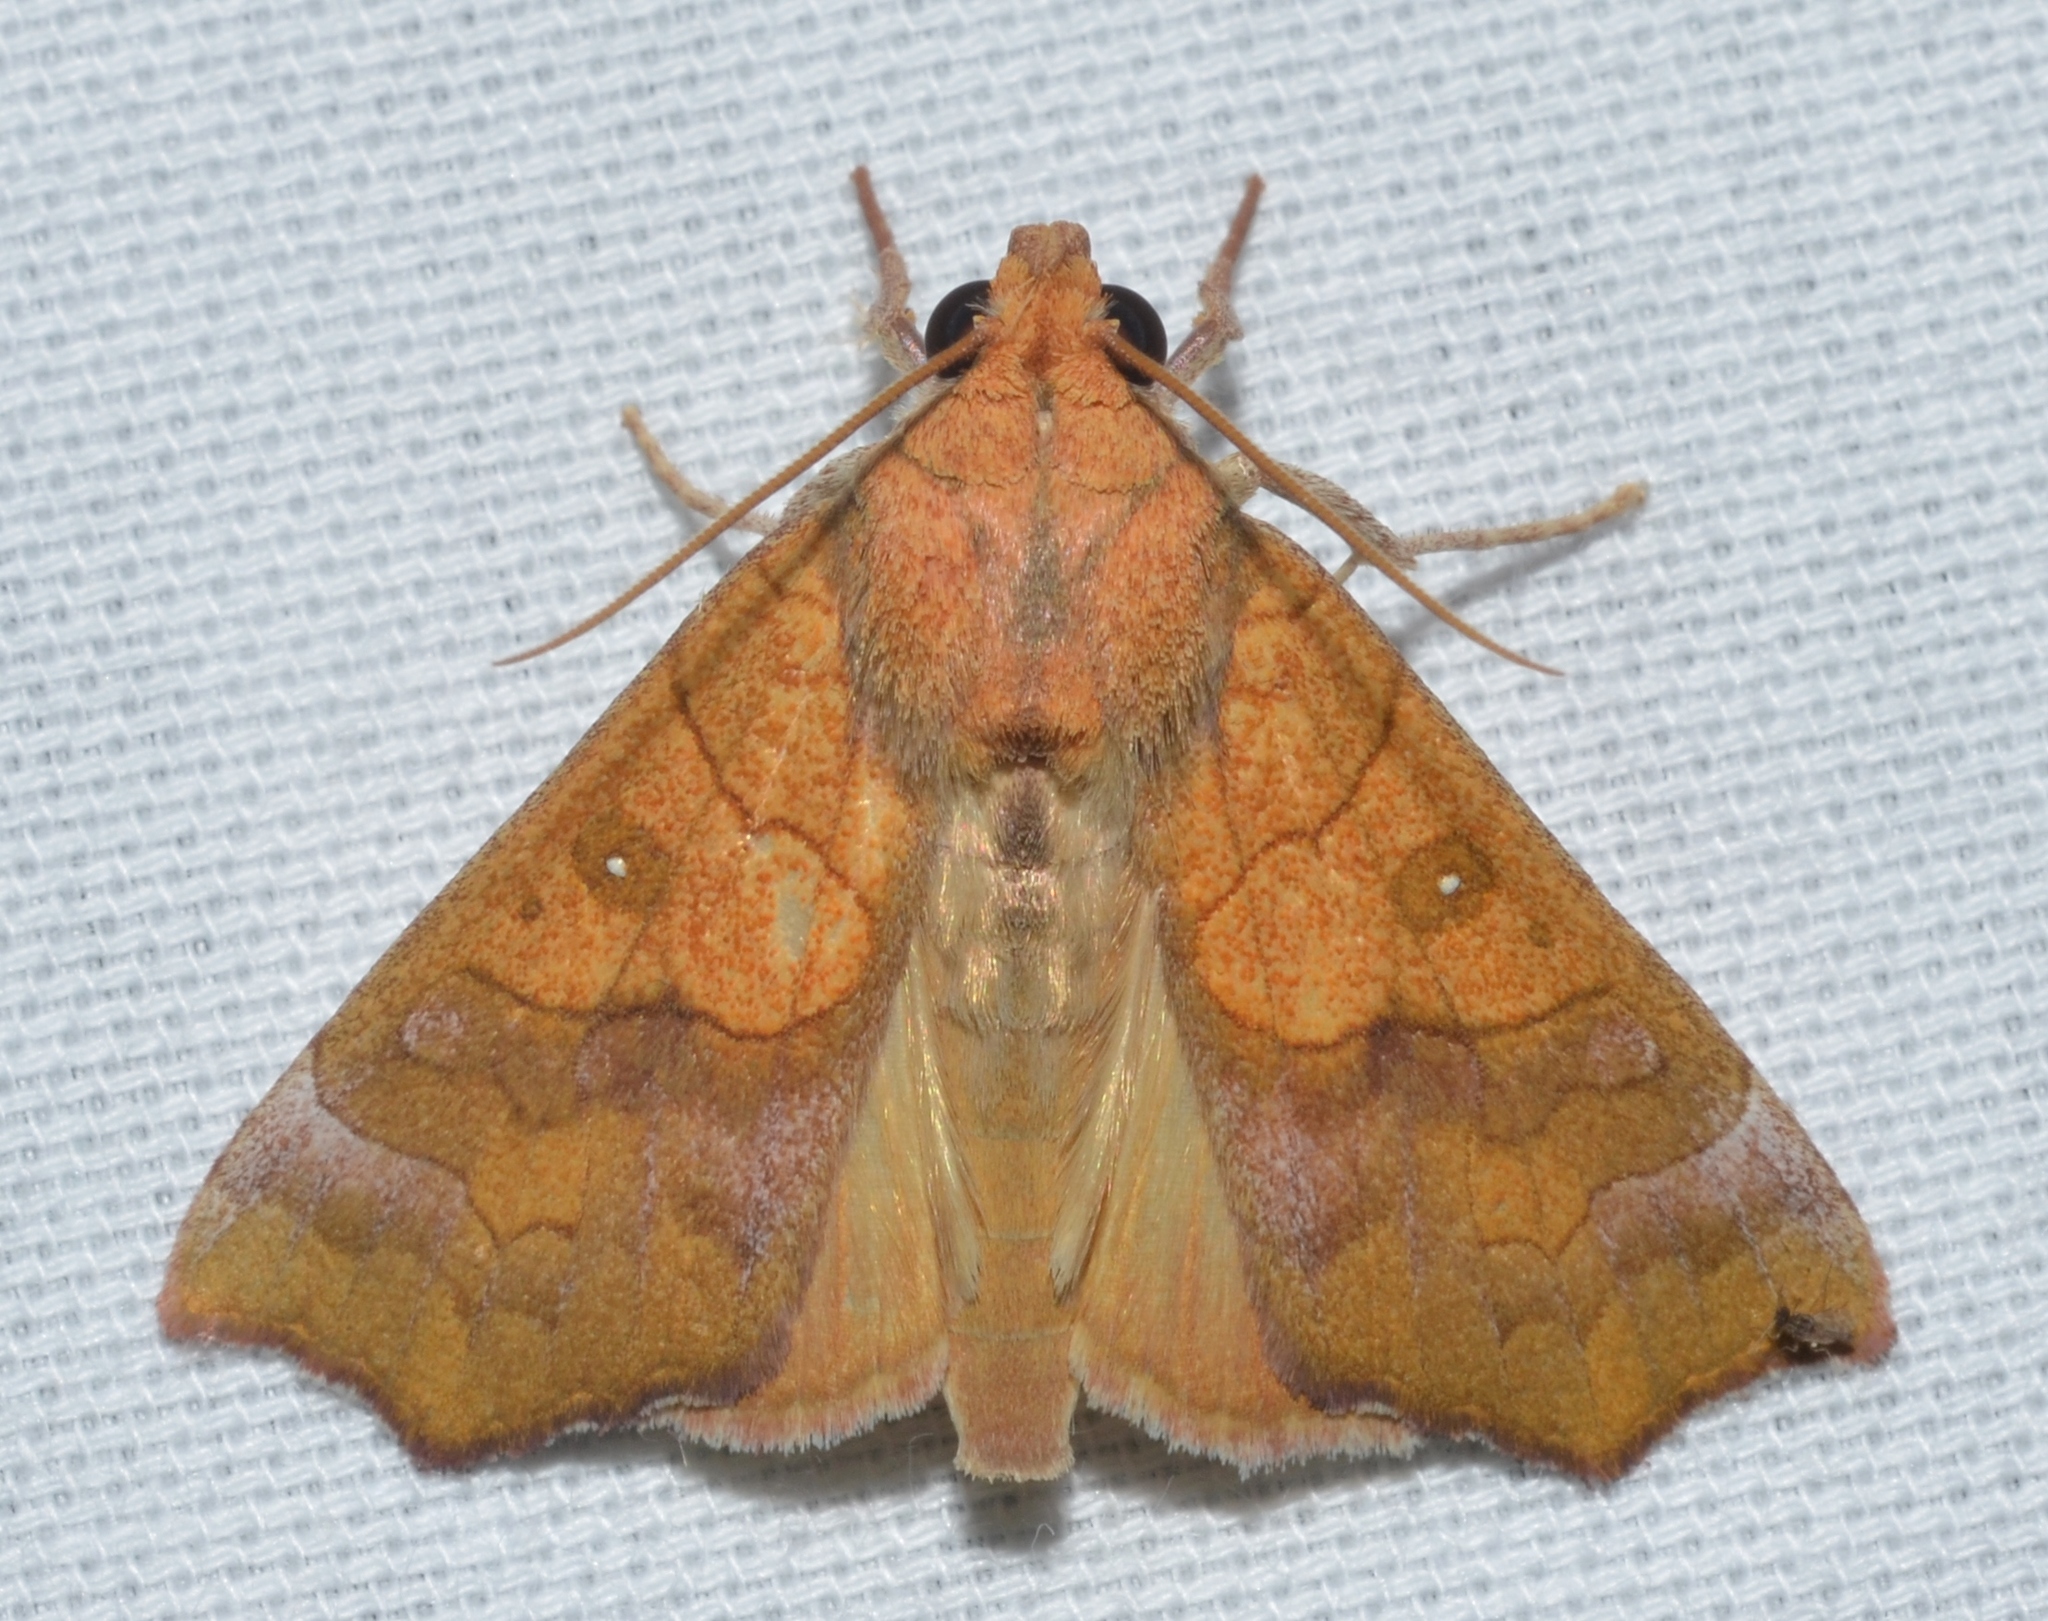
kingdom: Animalia
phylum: Arthropoda
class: Insecta
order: Lepidoptera
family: Erebidae
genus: Anomis
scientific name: Anomis erosa
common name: Yellow scallop moth
